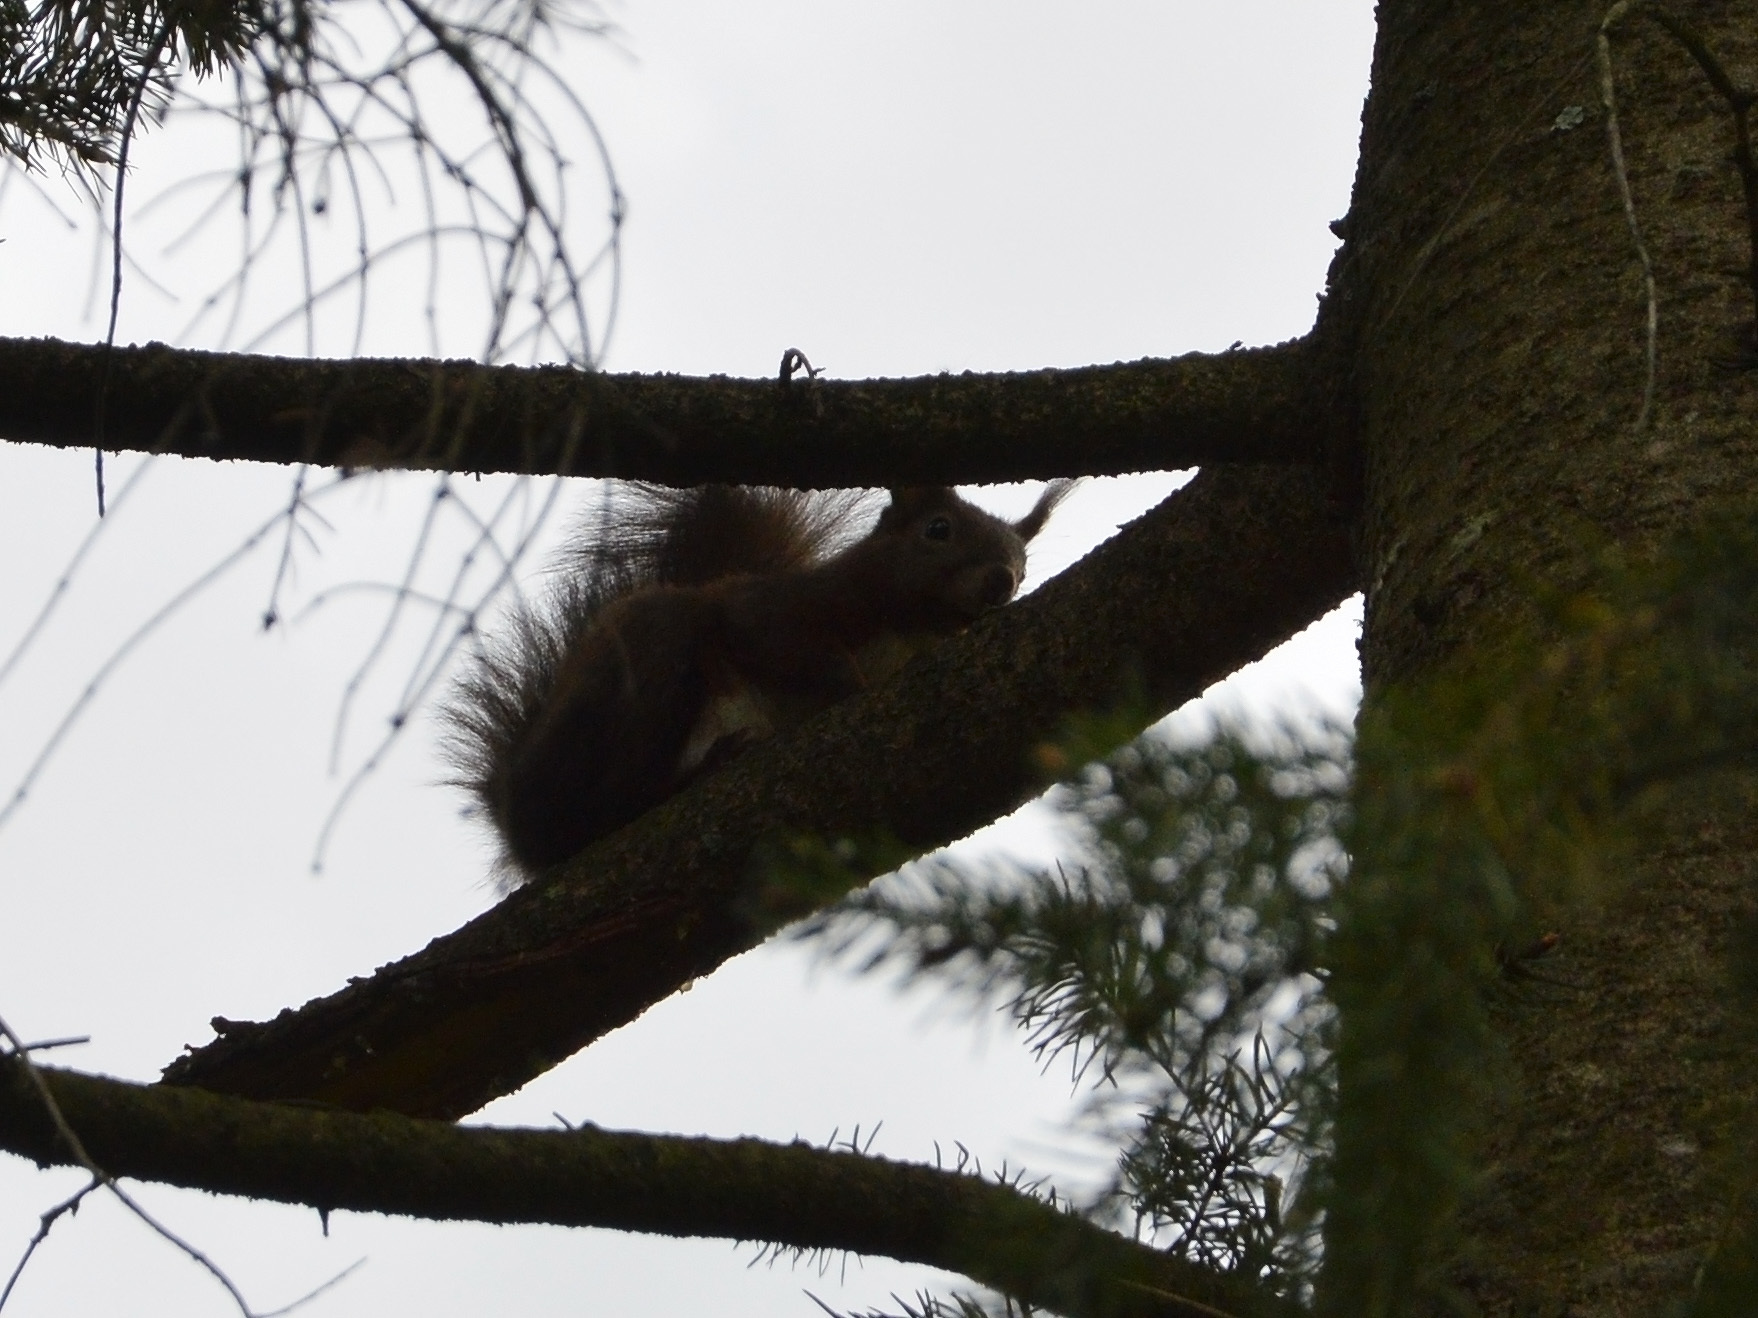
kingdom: Animalia
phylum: Chordata
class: Mammalia
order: Rodentia
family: Sciuridae
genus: Sciurus
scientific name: Sciurus vulgaris
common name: Eurasian red squirrel
